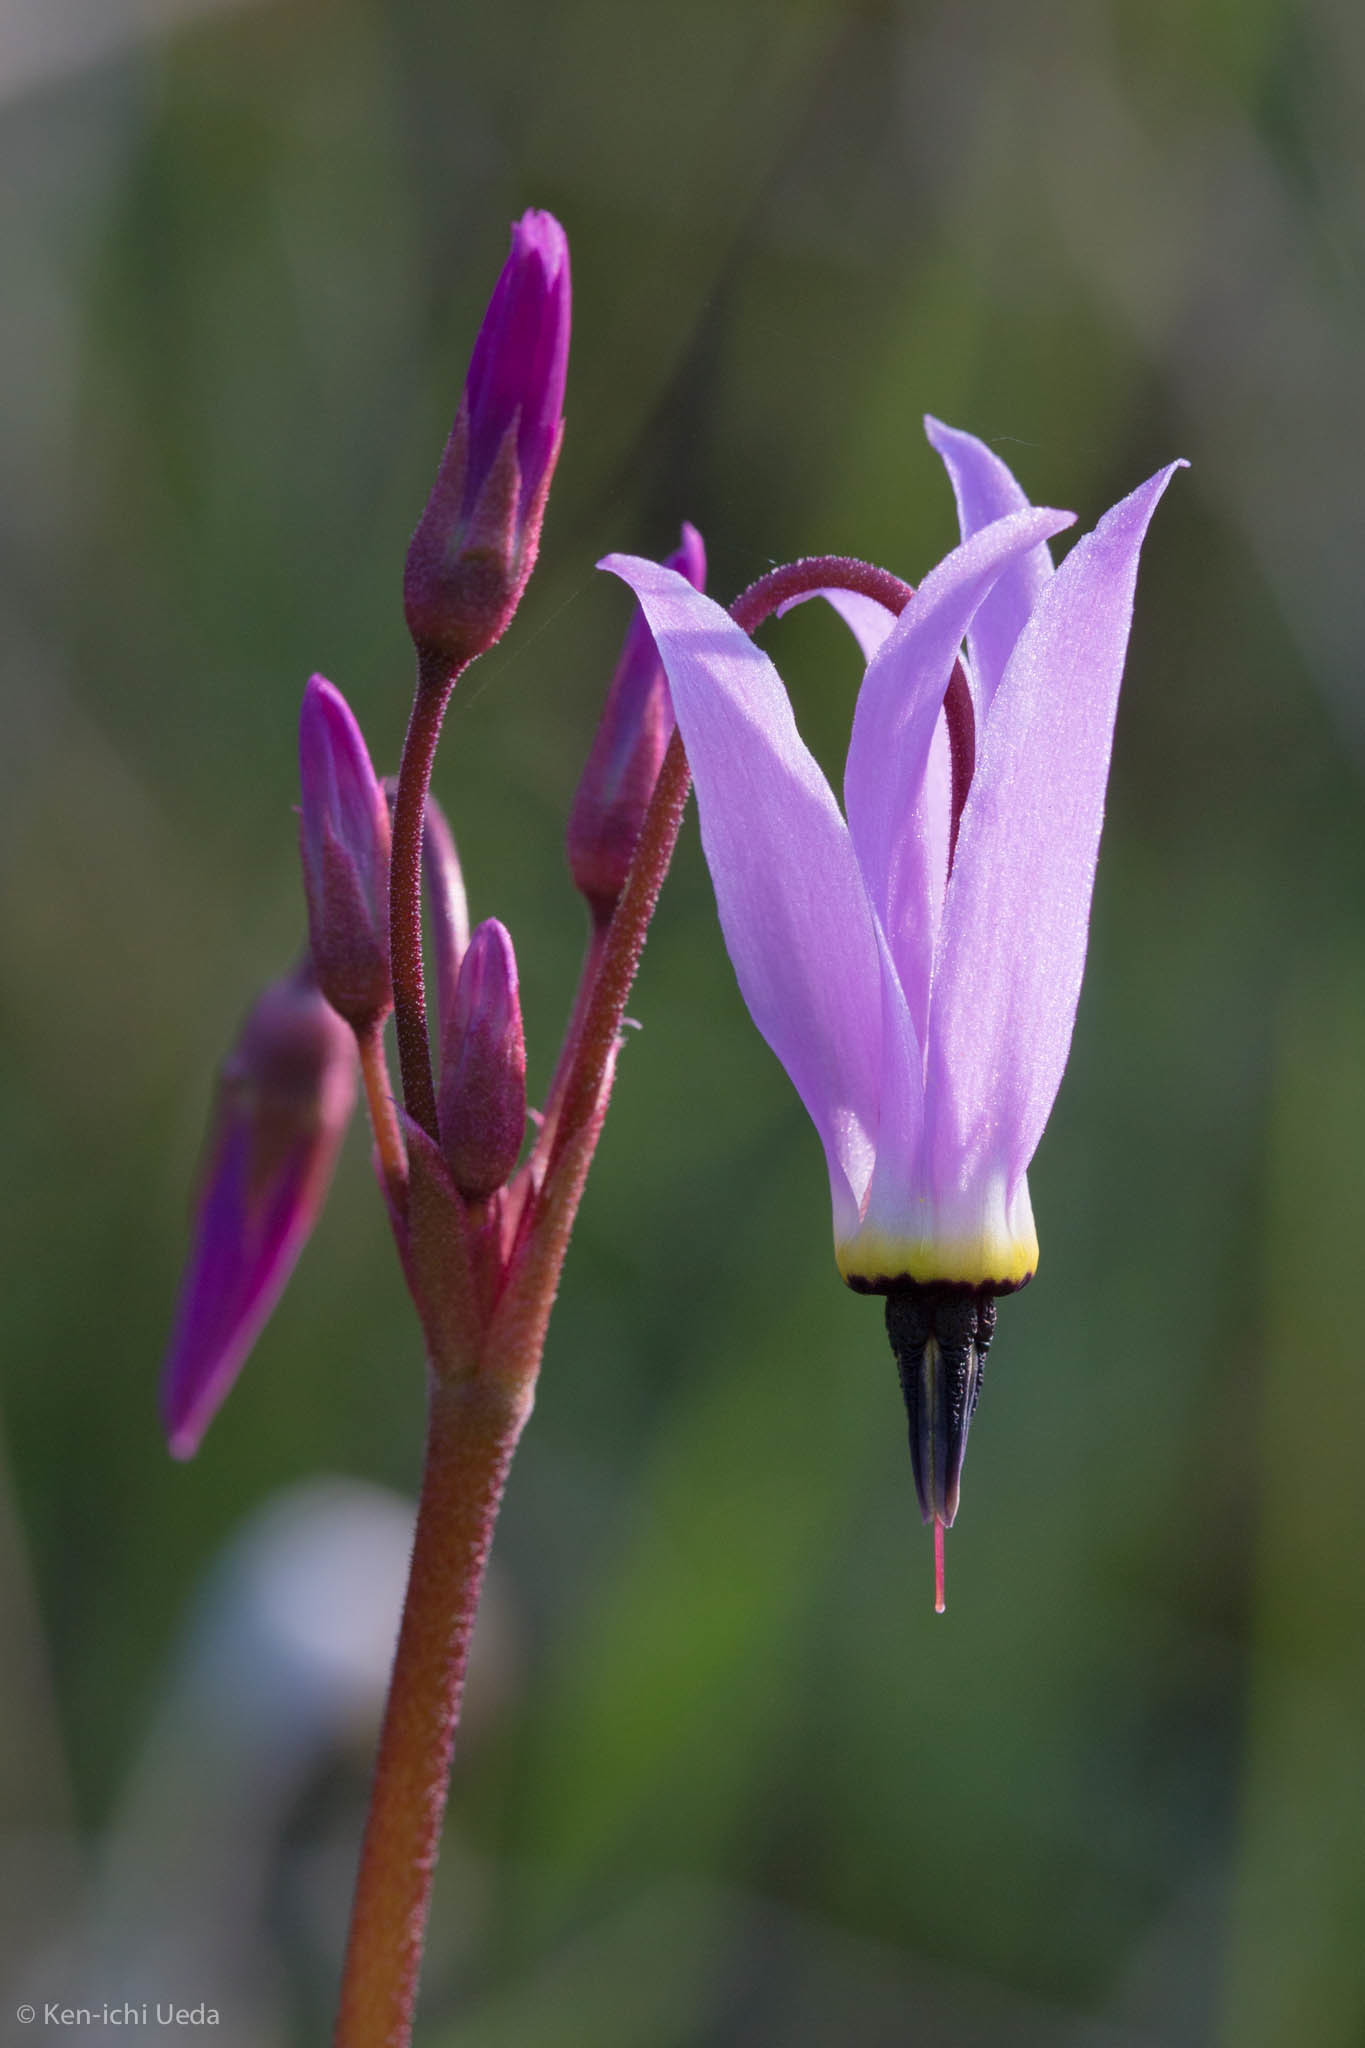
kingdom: Plantae
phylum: Tracheophyta
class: Magnoliopsida
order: Ericales
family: Primulaceae
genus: Dodecatheon
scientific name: Dodecatheon hendersonii
